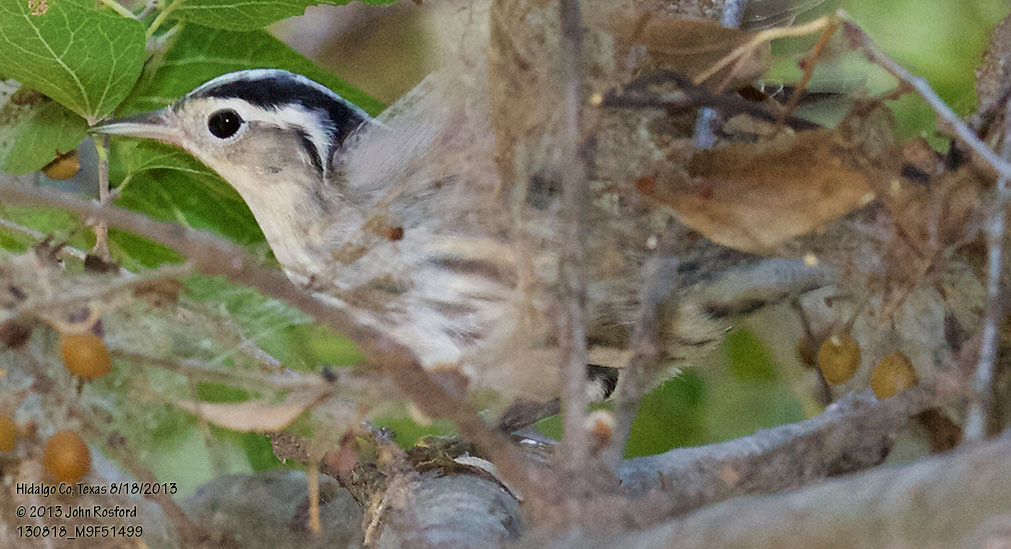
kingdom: Animalia
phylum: Chordata
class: Aves
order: Passeriformes
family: Parulidae
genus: Mniotilta
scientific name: Mniotilta varia
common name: Black-and-white warbler
